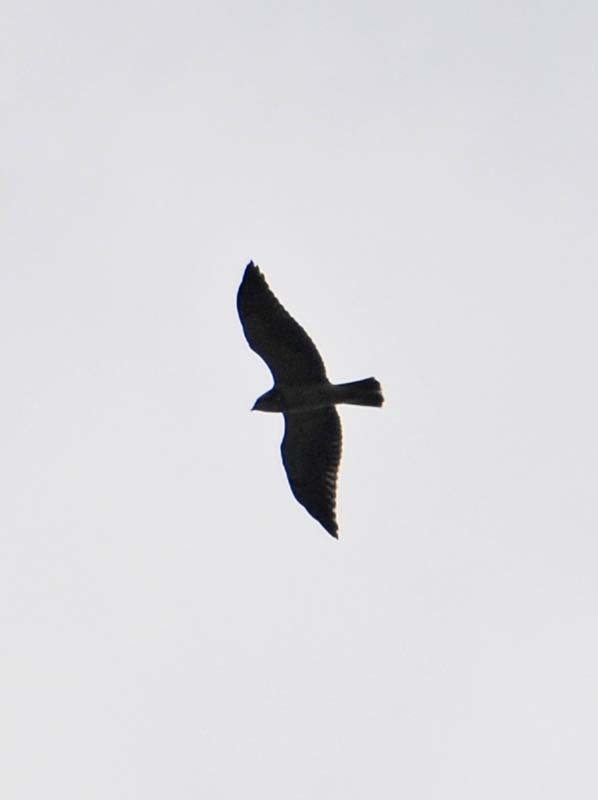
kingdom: Animalia
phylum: Chordata
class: Aves
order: Accipitriformes
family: Accipitridae
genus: Buteo
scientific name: Buteo swainsoni
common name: Swainson's hawk
